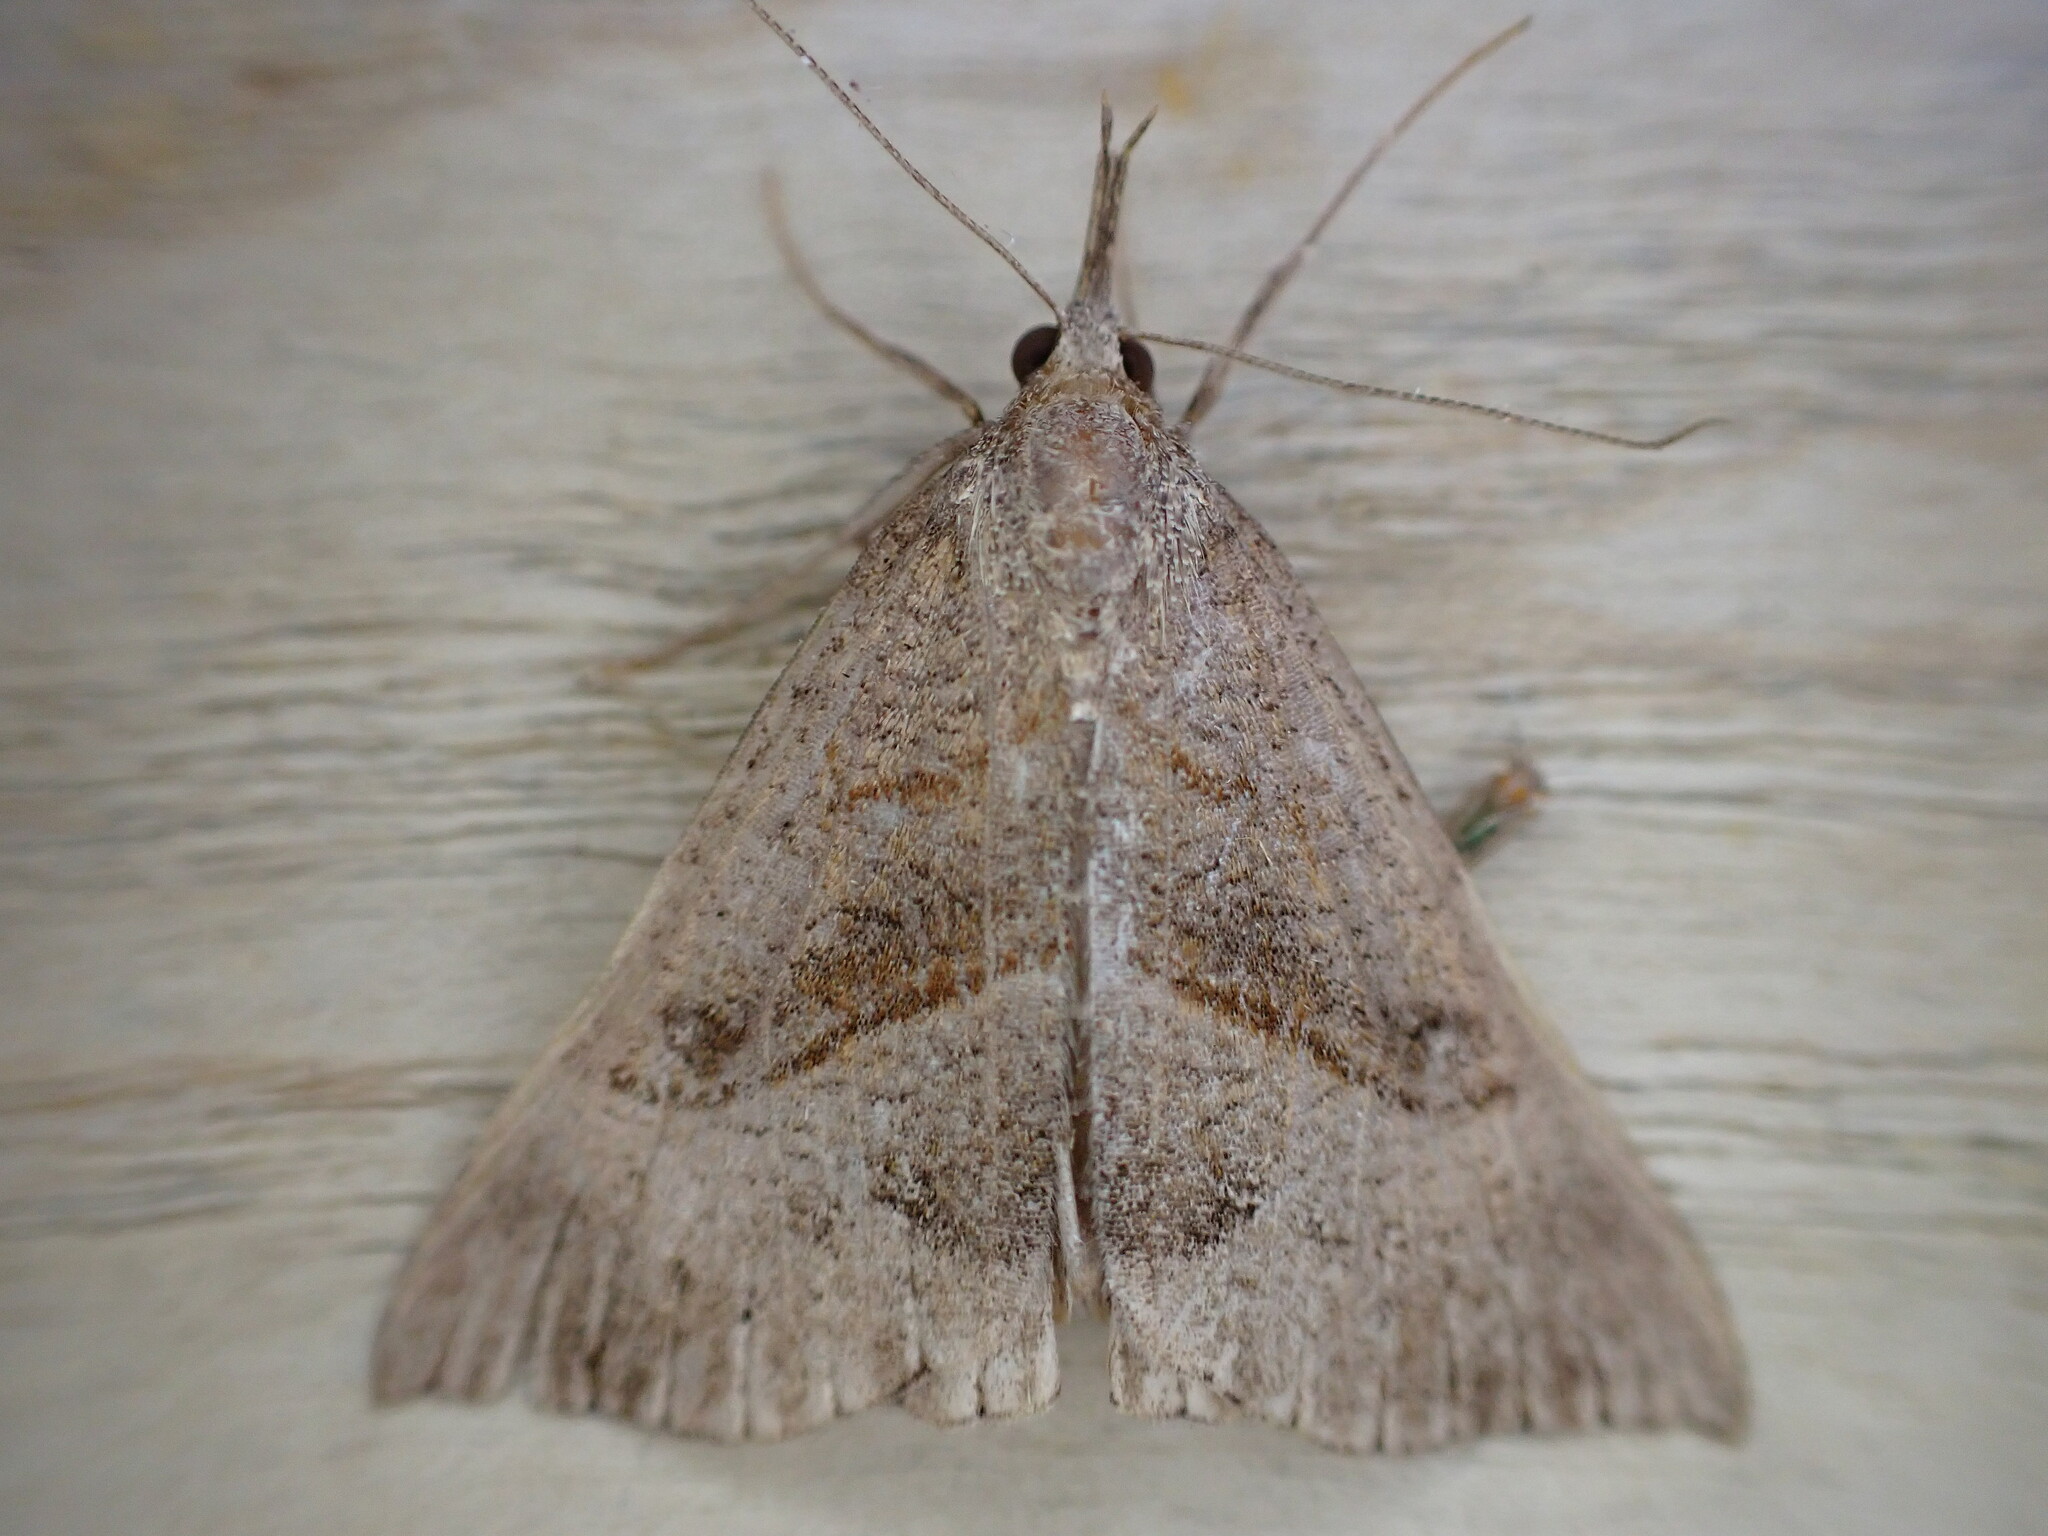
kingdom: Animalia
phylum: Arthropoda
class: Insecta
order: Lepidoptera
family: Erebidae
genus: Hypena
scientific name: Hypena proboscidalis
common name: Snout
